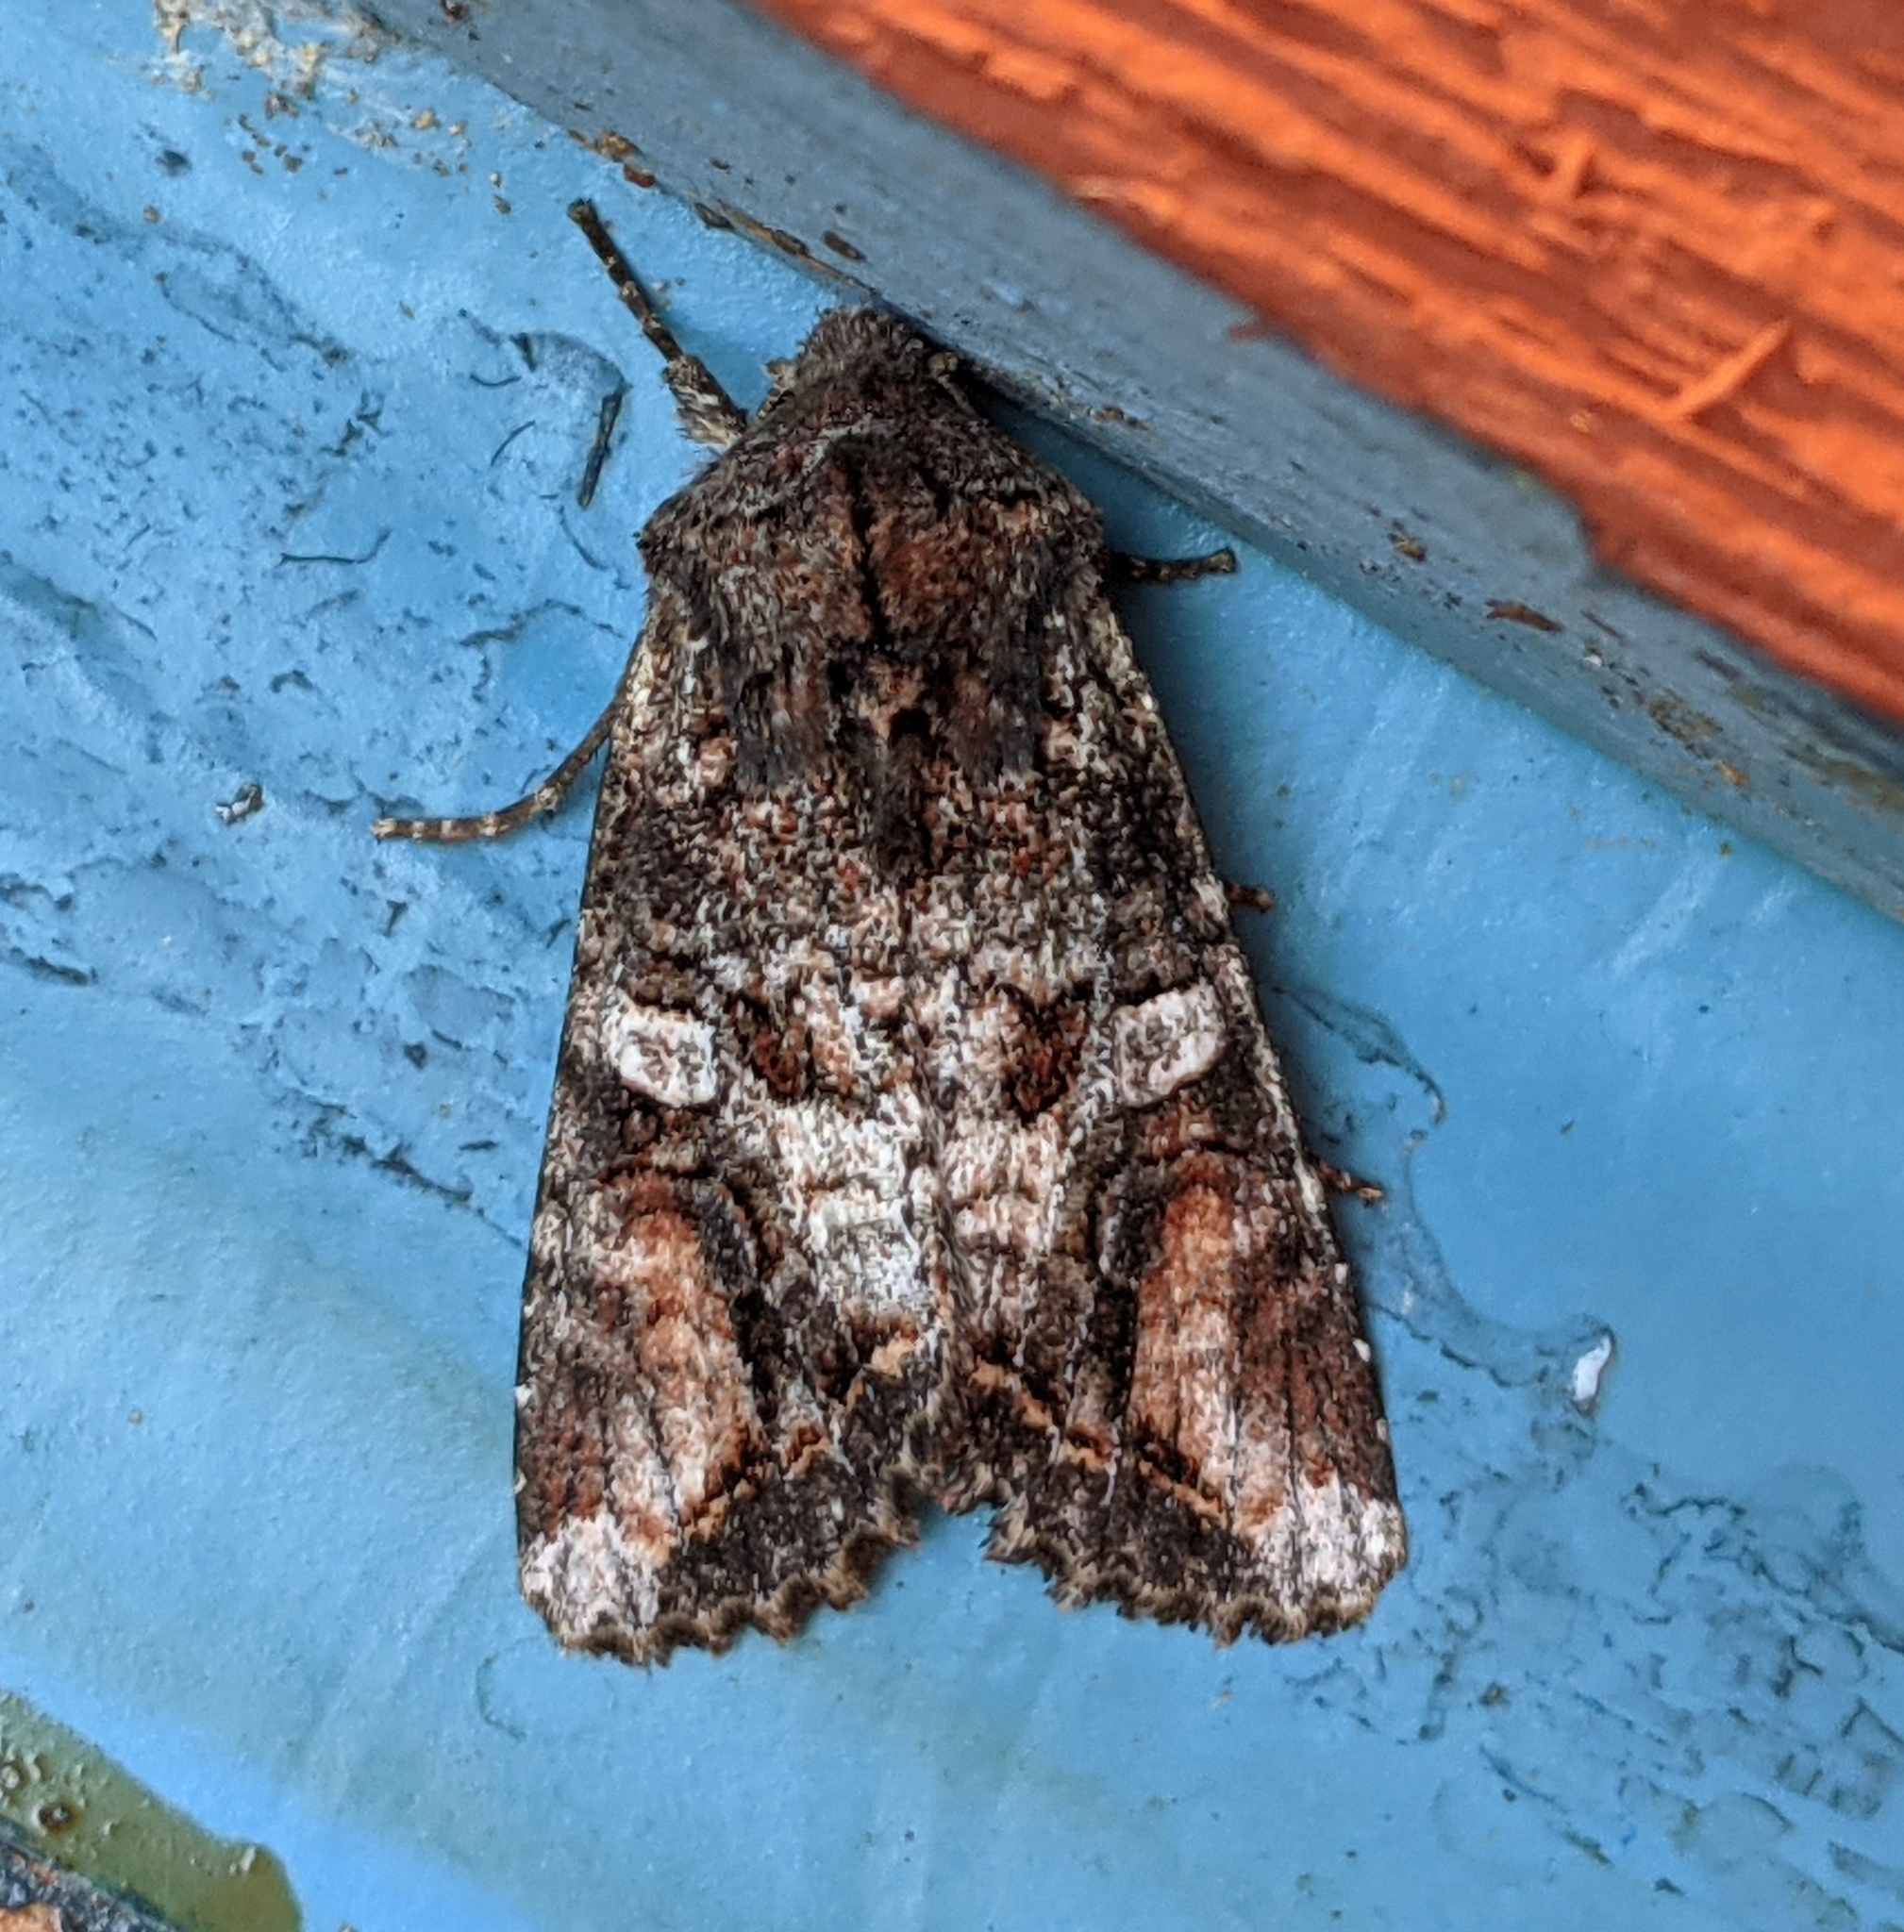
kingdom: Animalia
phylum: Arthropoda
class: Insecta
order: Lepidoptera
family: Noctuidae
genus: Egira
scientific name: Egira perlubens
